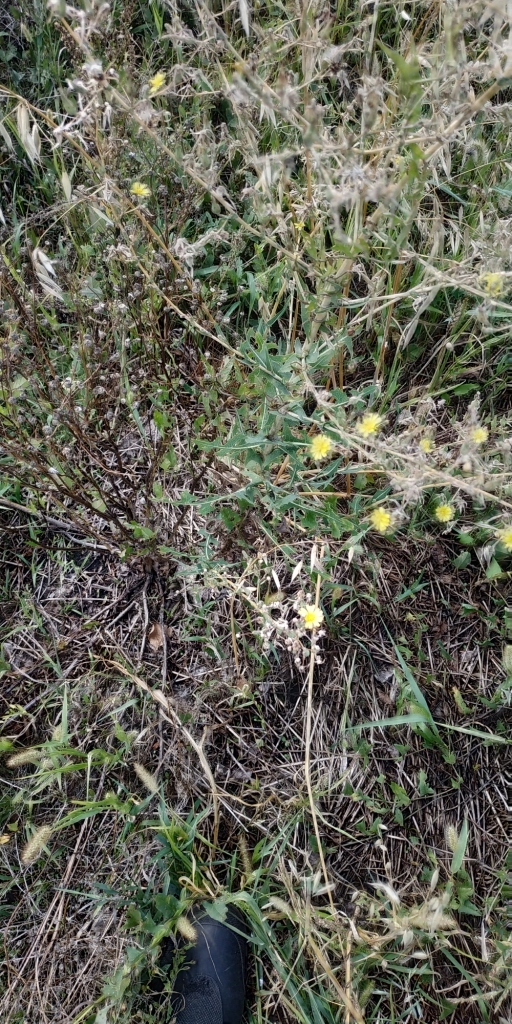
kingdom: Plantae
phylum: Tracheophyta
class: Magnoliopsida
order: Asterales
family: Asteraceae
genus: Lactuca
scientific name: Lactuca serriola
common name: Prickly lettuce
